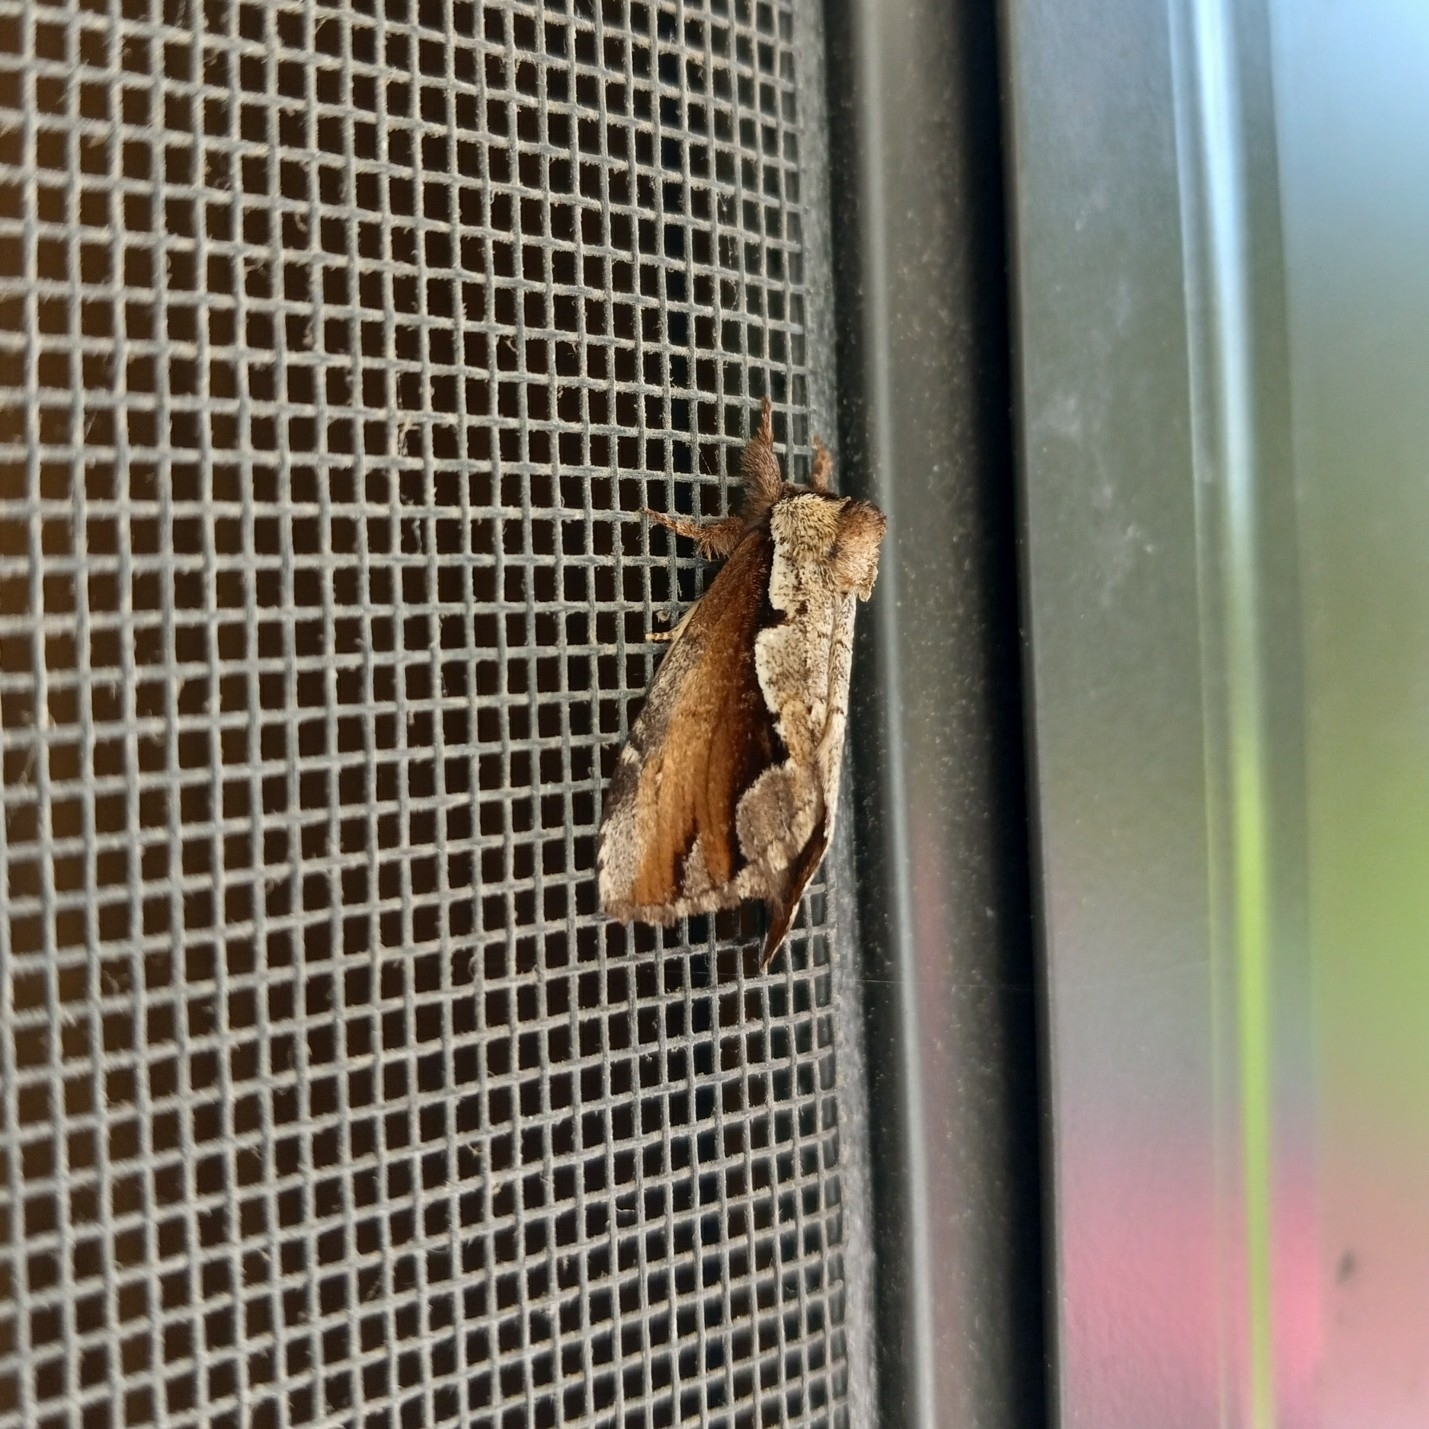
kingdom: Animalia
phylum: Arthropoda
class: Insecta
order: Lepidoptera
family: Notodontidae
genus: Nerice
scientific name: Nerice bidentata
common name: Double-toothed prominent
